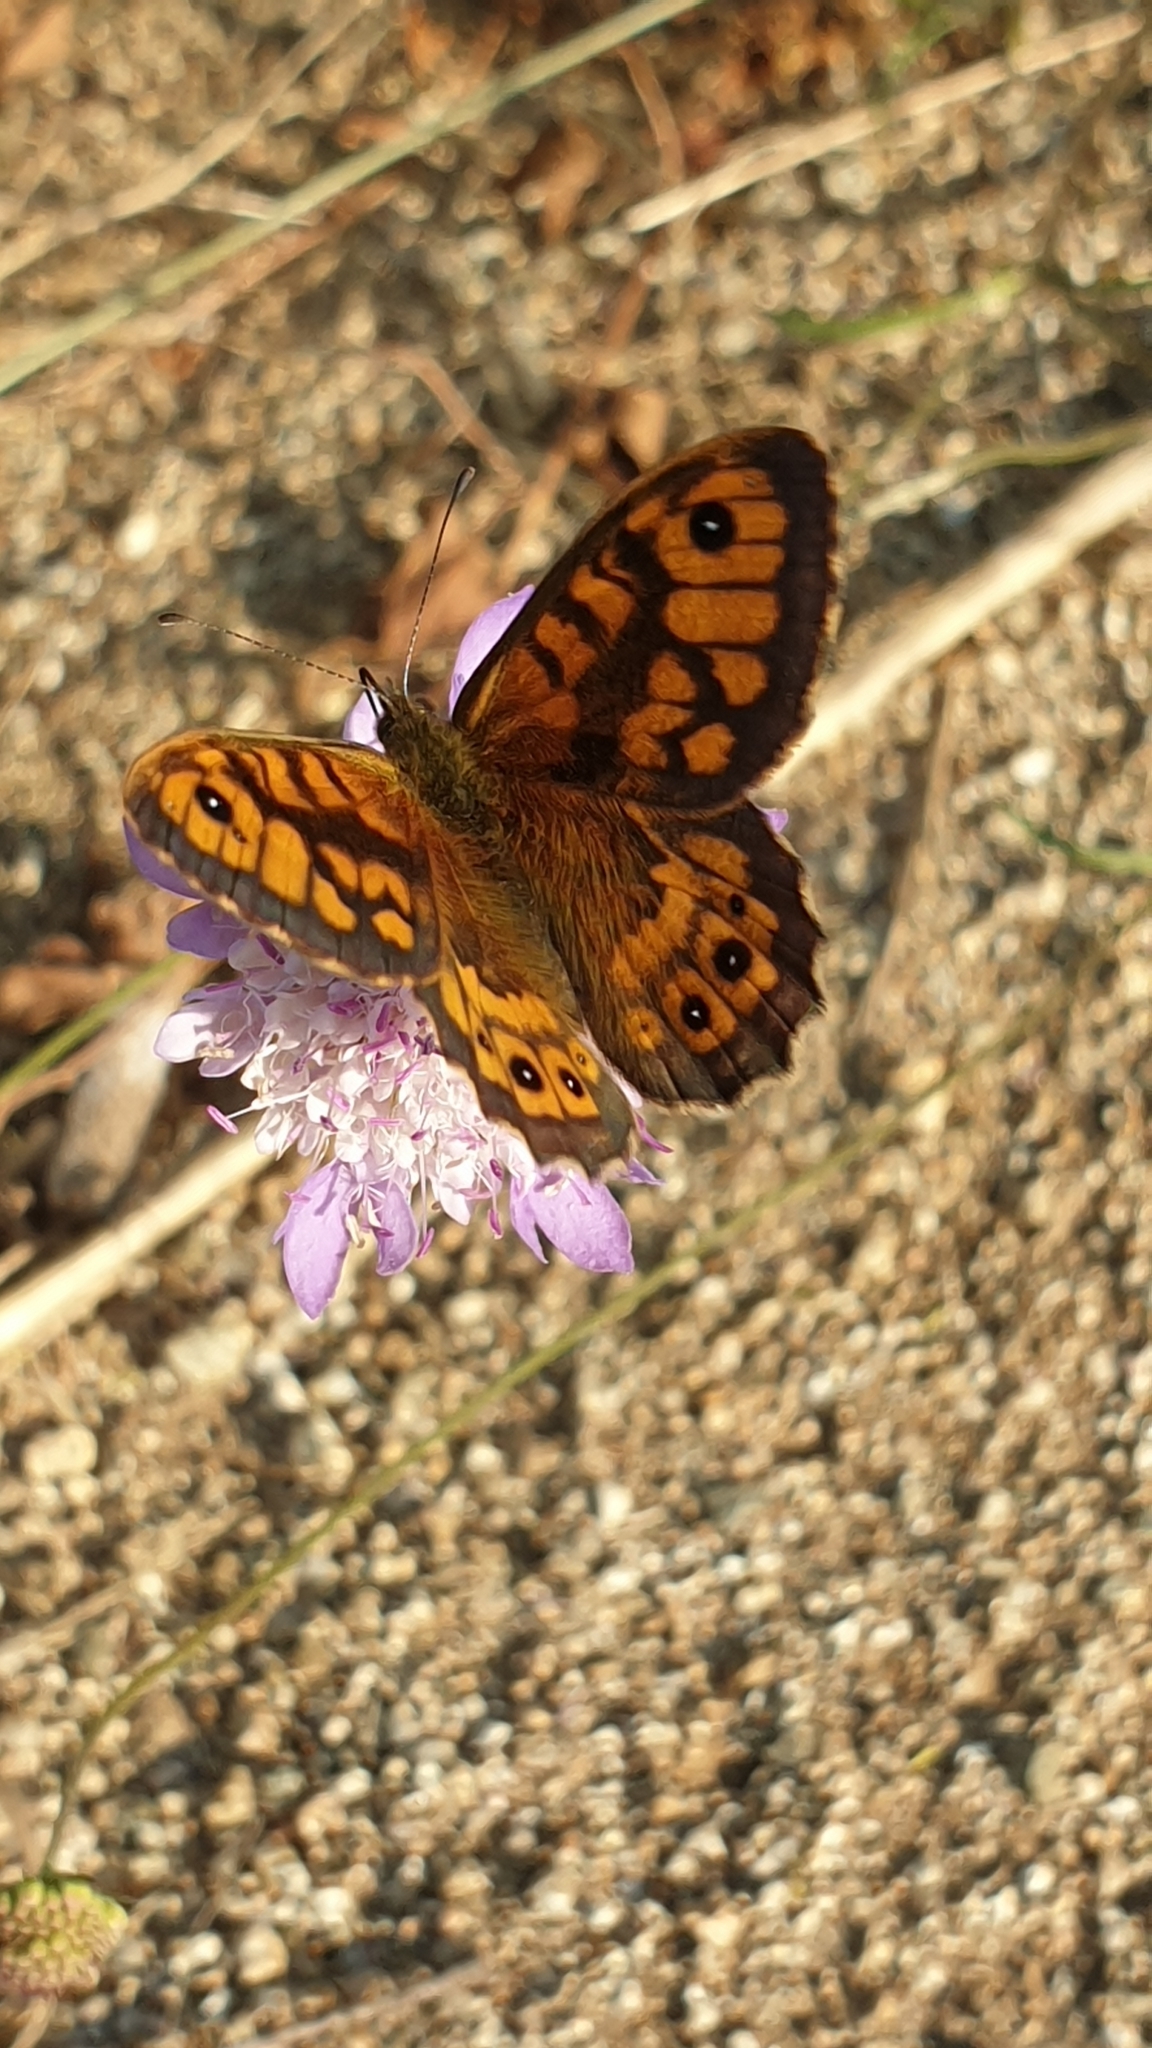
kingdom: Animalia
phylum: Arthropoda
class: Insecta
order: Lepidoptera
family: Nymphalidae
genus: Pararge
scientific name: Pararge Lasiommata megera
